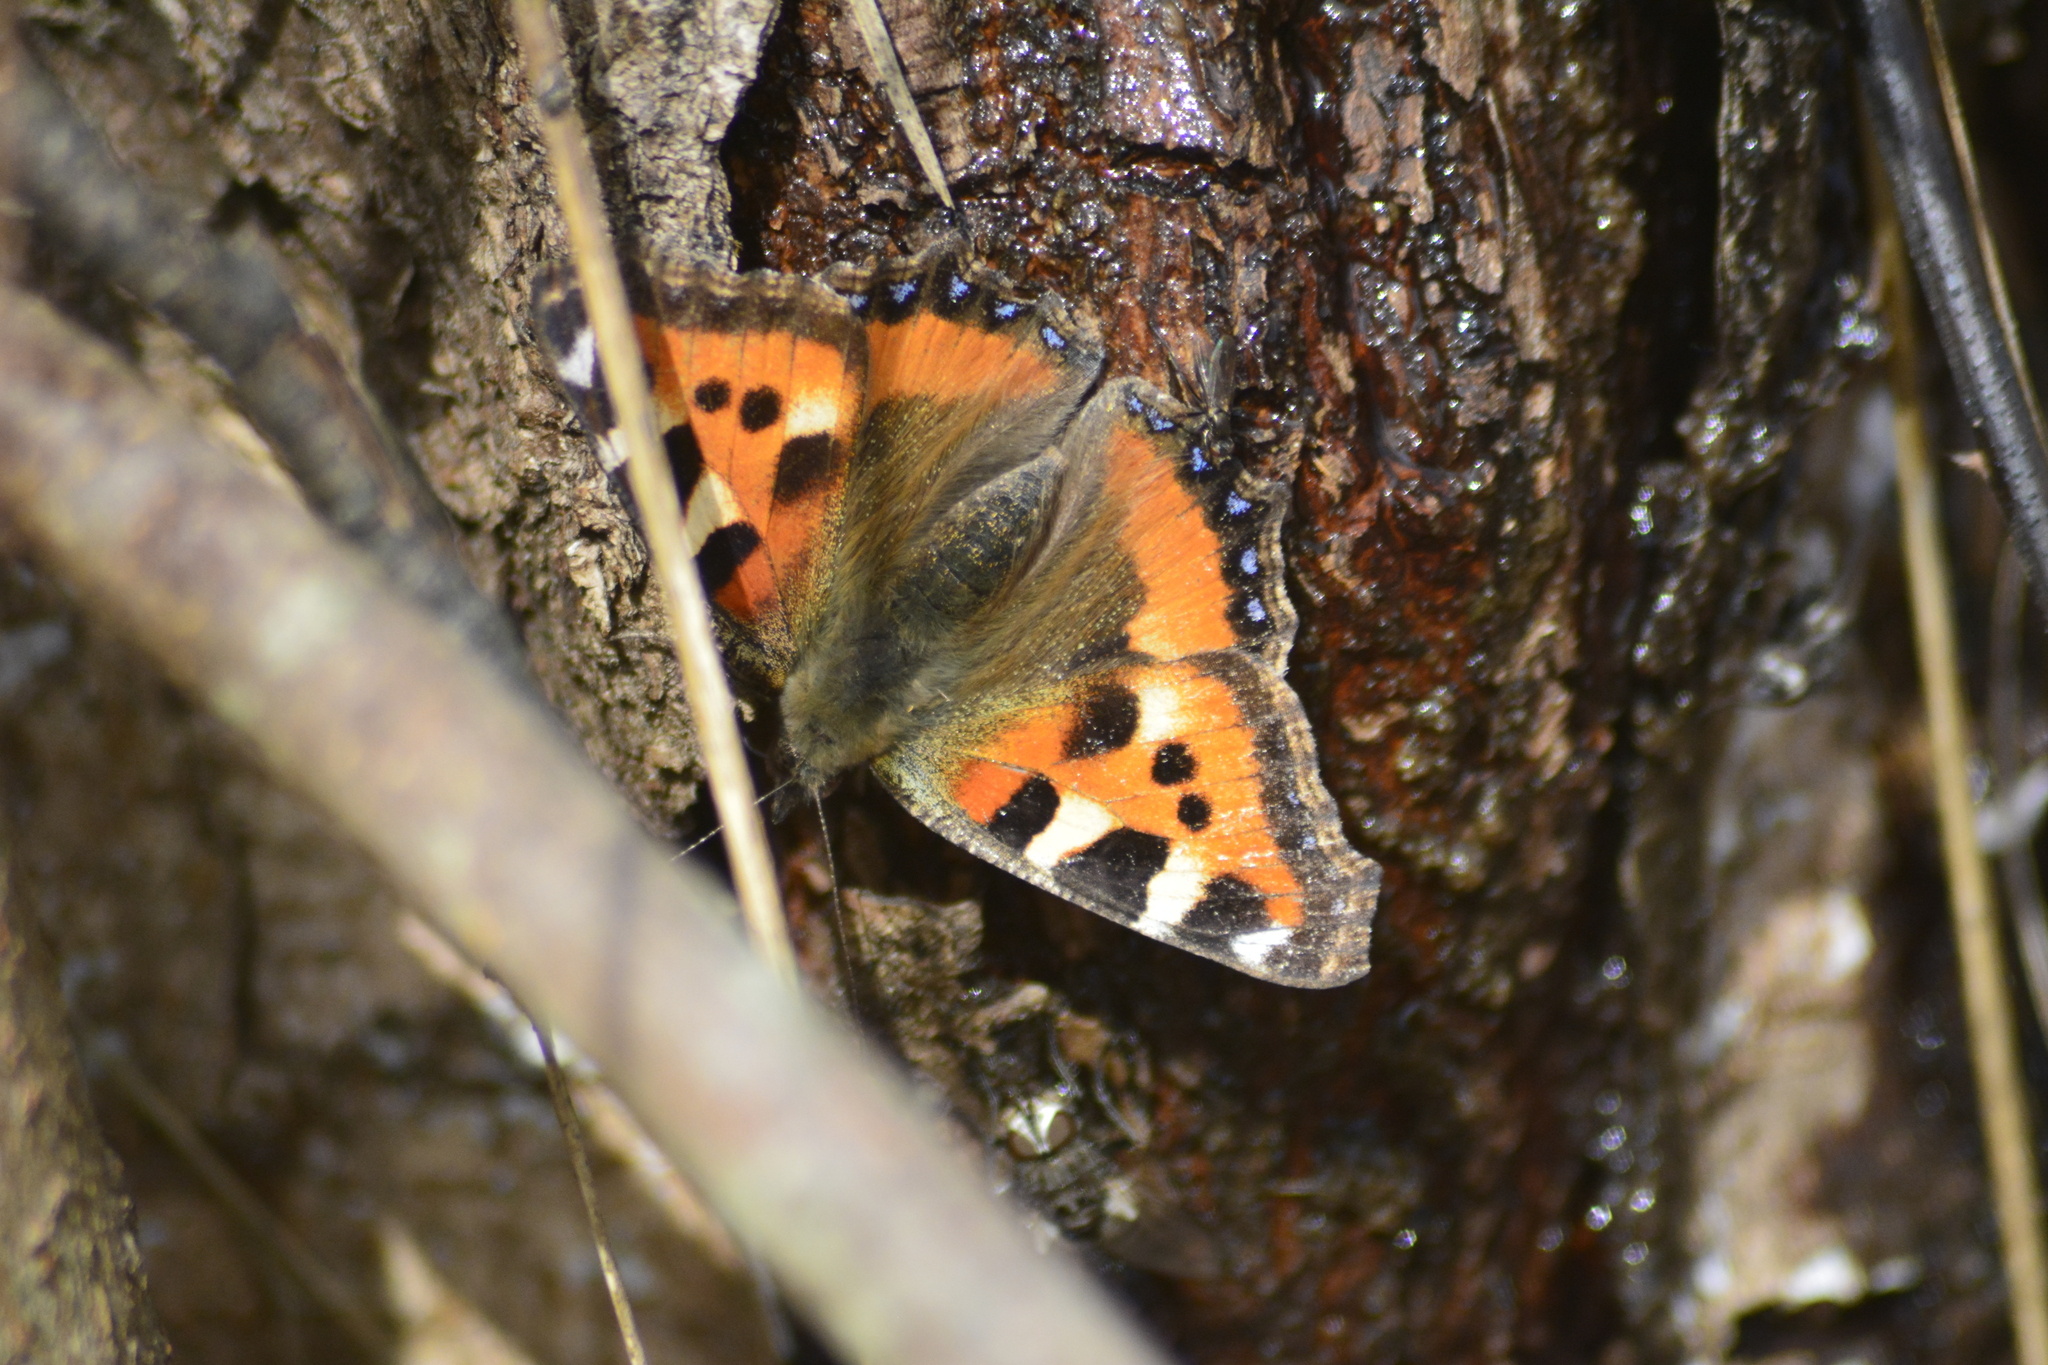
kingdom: Animalia
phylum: Arthropoda
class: Insecta
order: Lepidoptera
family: Nymphalidae
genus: Aglais
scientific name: Aglais urticae
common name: Small tortoiseshell
